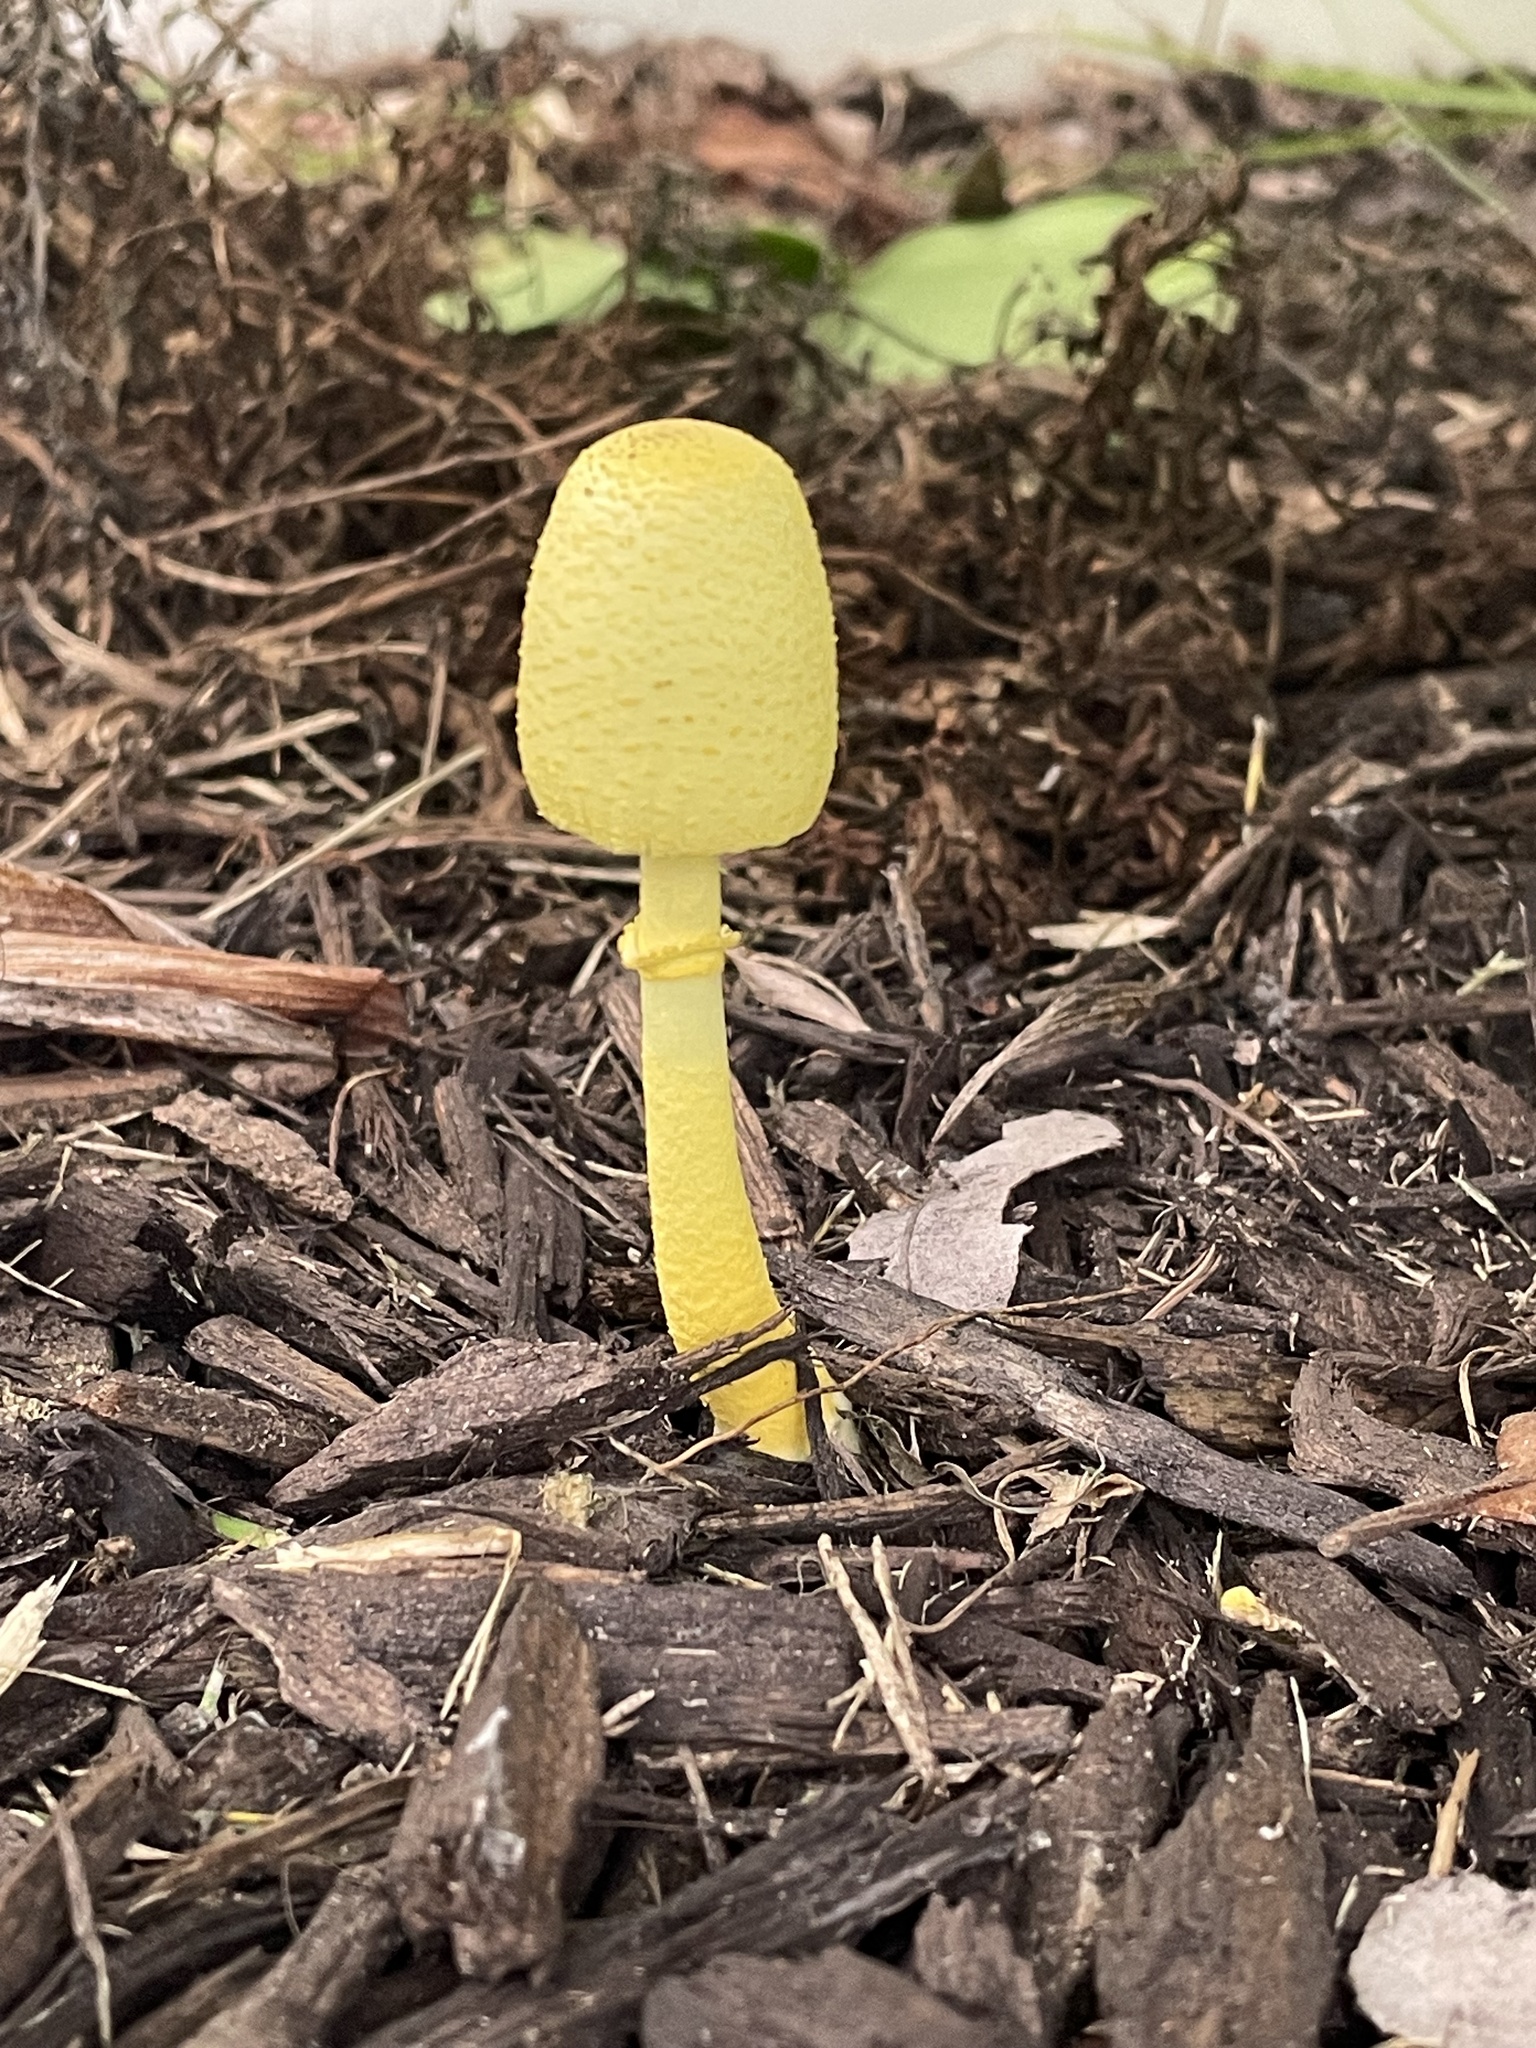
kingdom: Fungi
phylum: Basidiomycota
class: Agaricomycetes
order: Agaricales
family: Agaricaceae
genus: Leucocoprinus
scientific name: Leucocoprinus birnbaumii
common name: Plantpot dapperling
